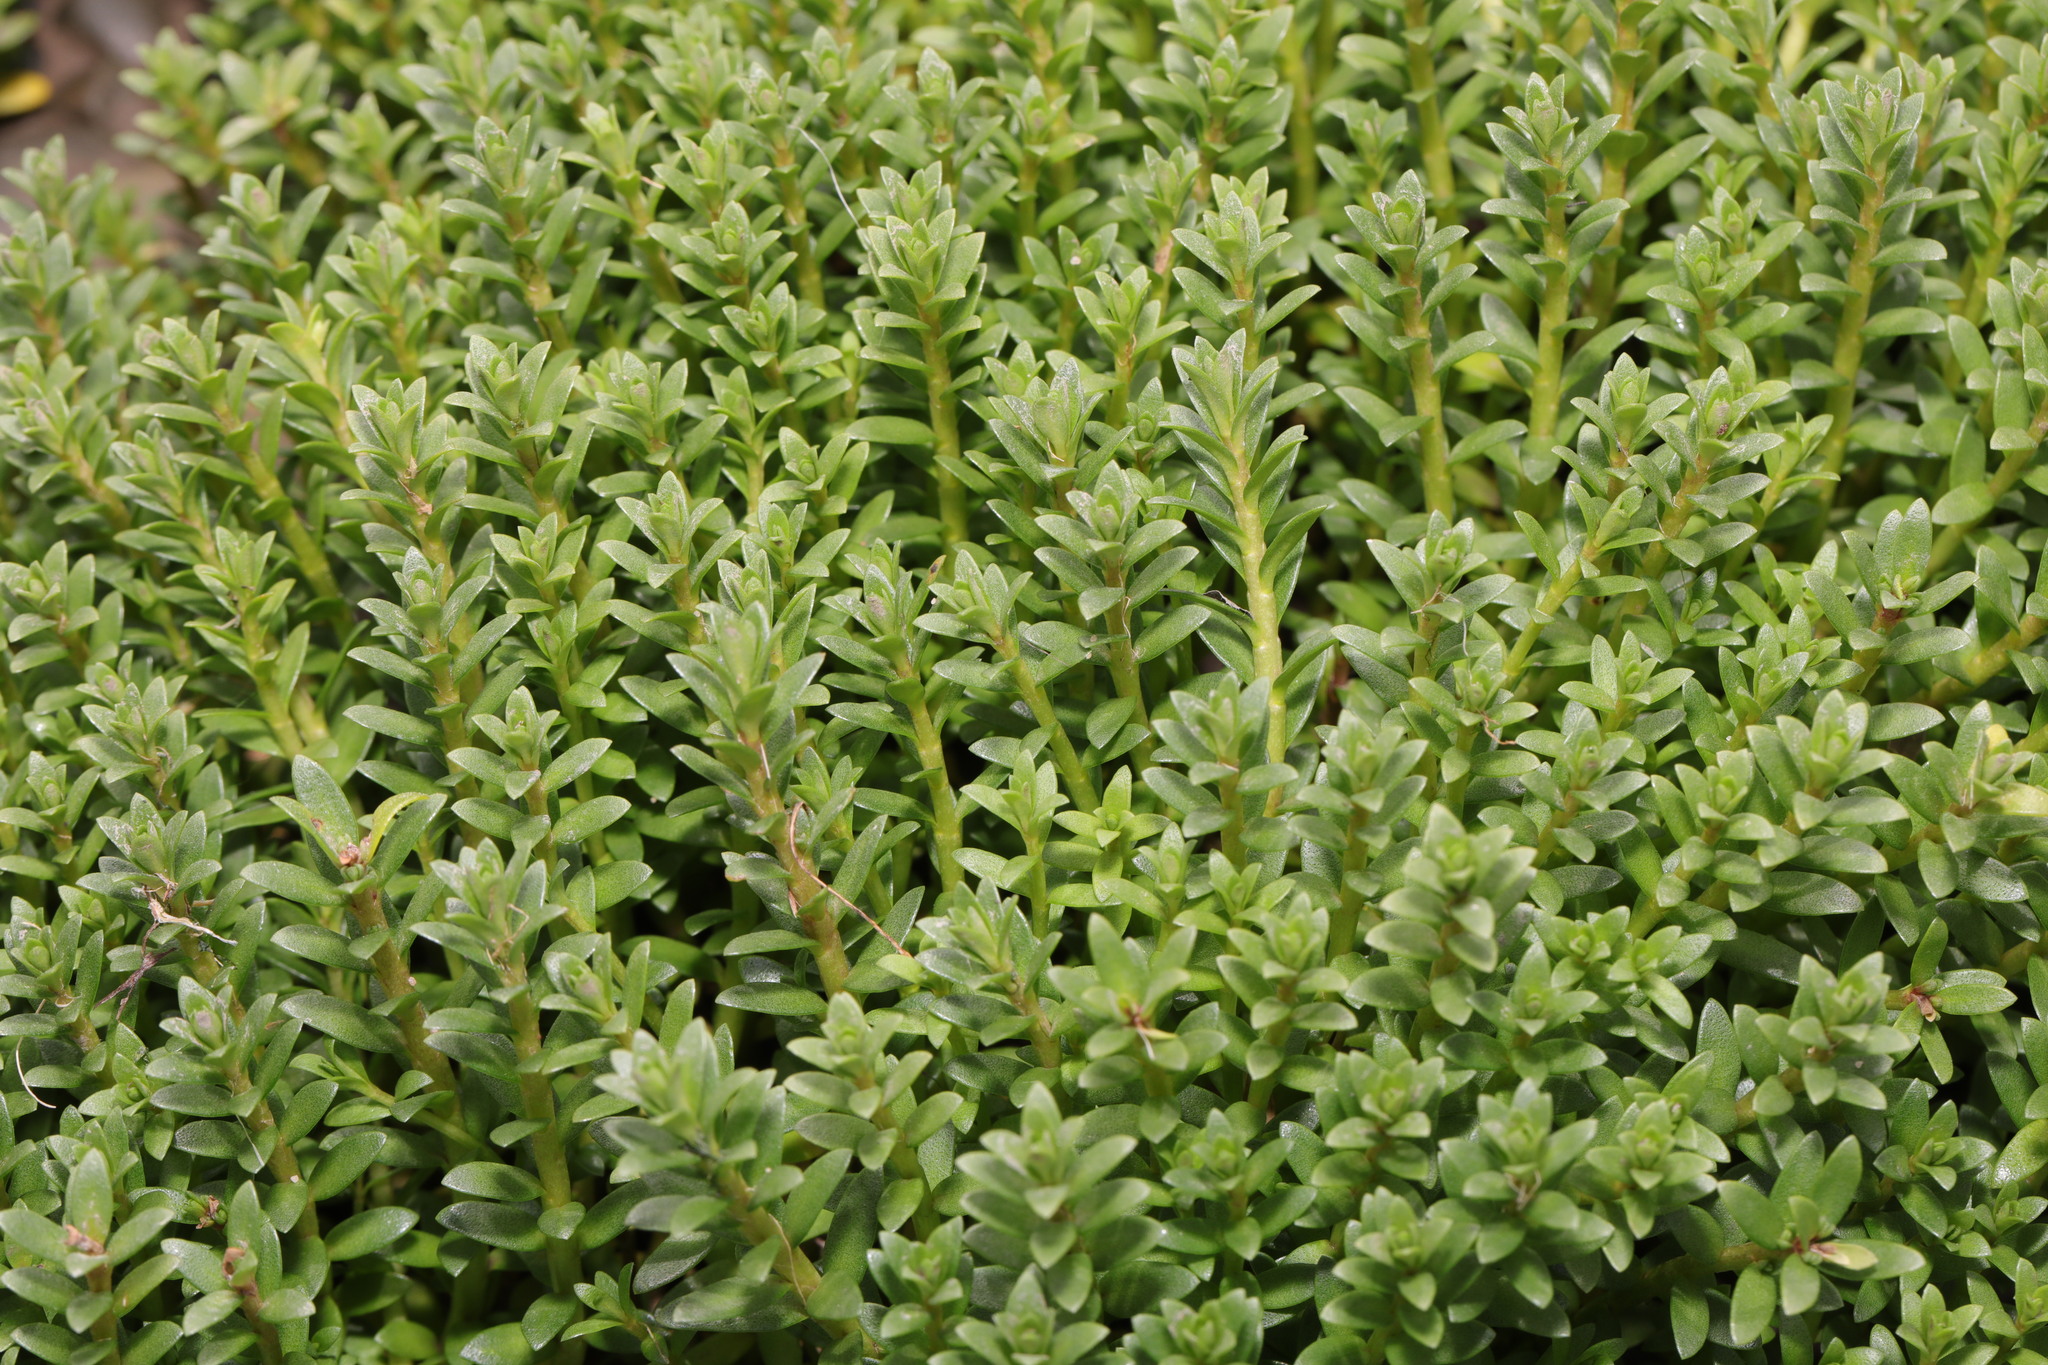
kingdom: Plantae
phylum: Tracheophyta
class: Magnoliopsida
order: Ericales
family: Primulaceae
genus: Lysimachia
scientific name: Lysimachia maritima
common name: Sea milkwort
